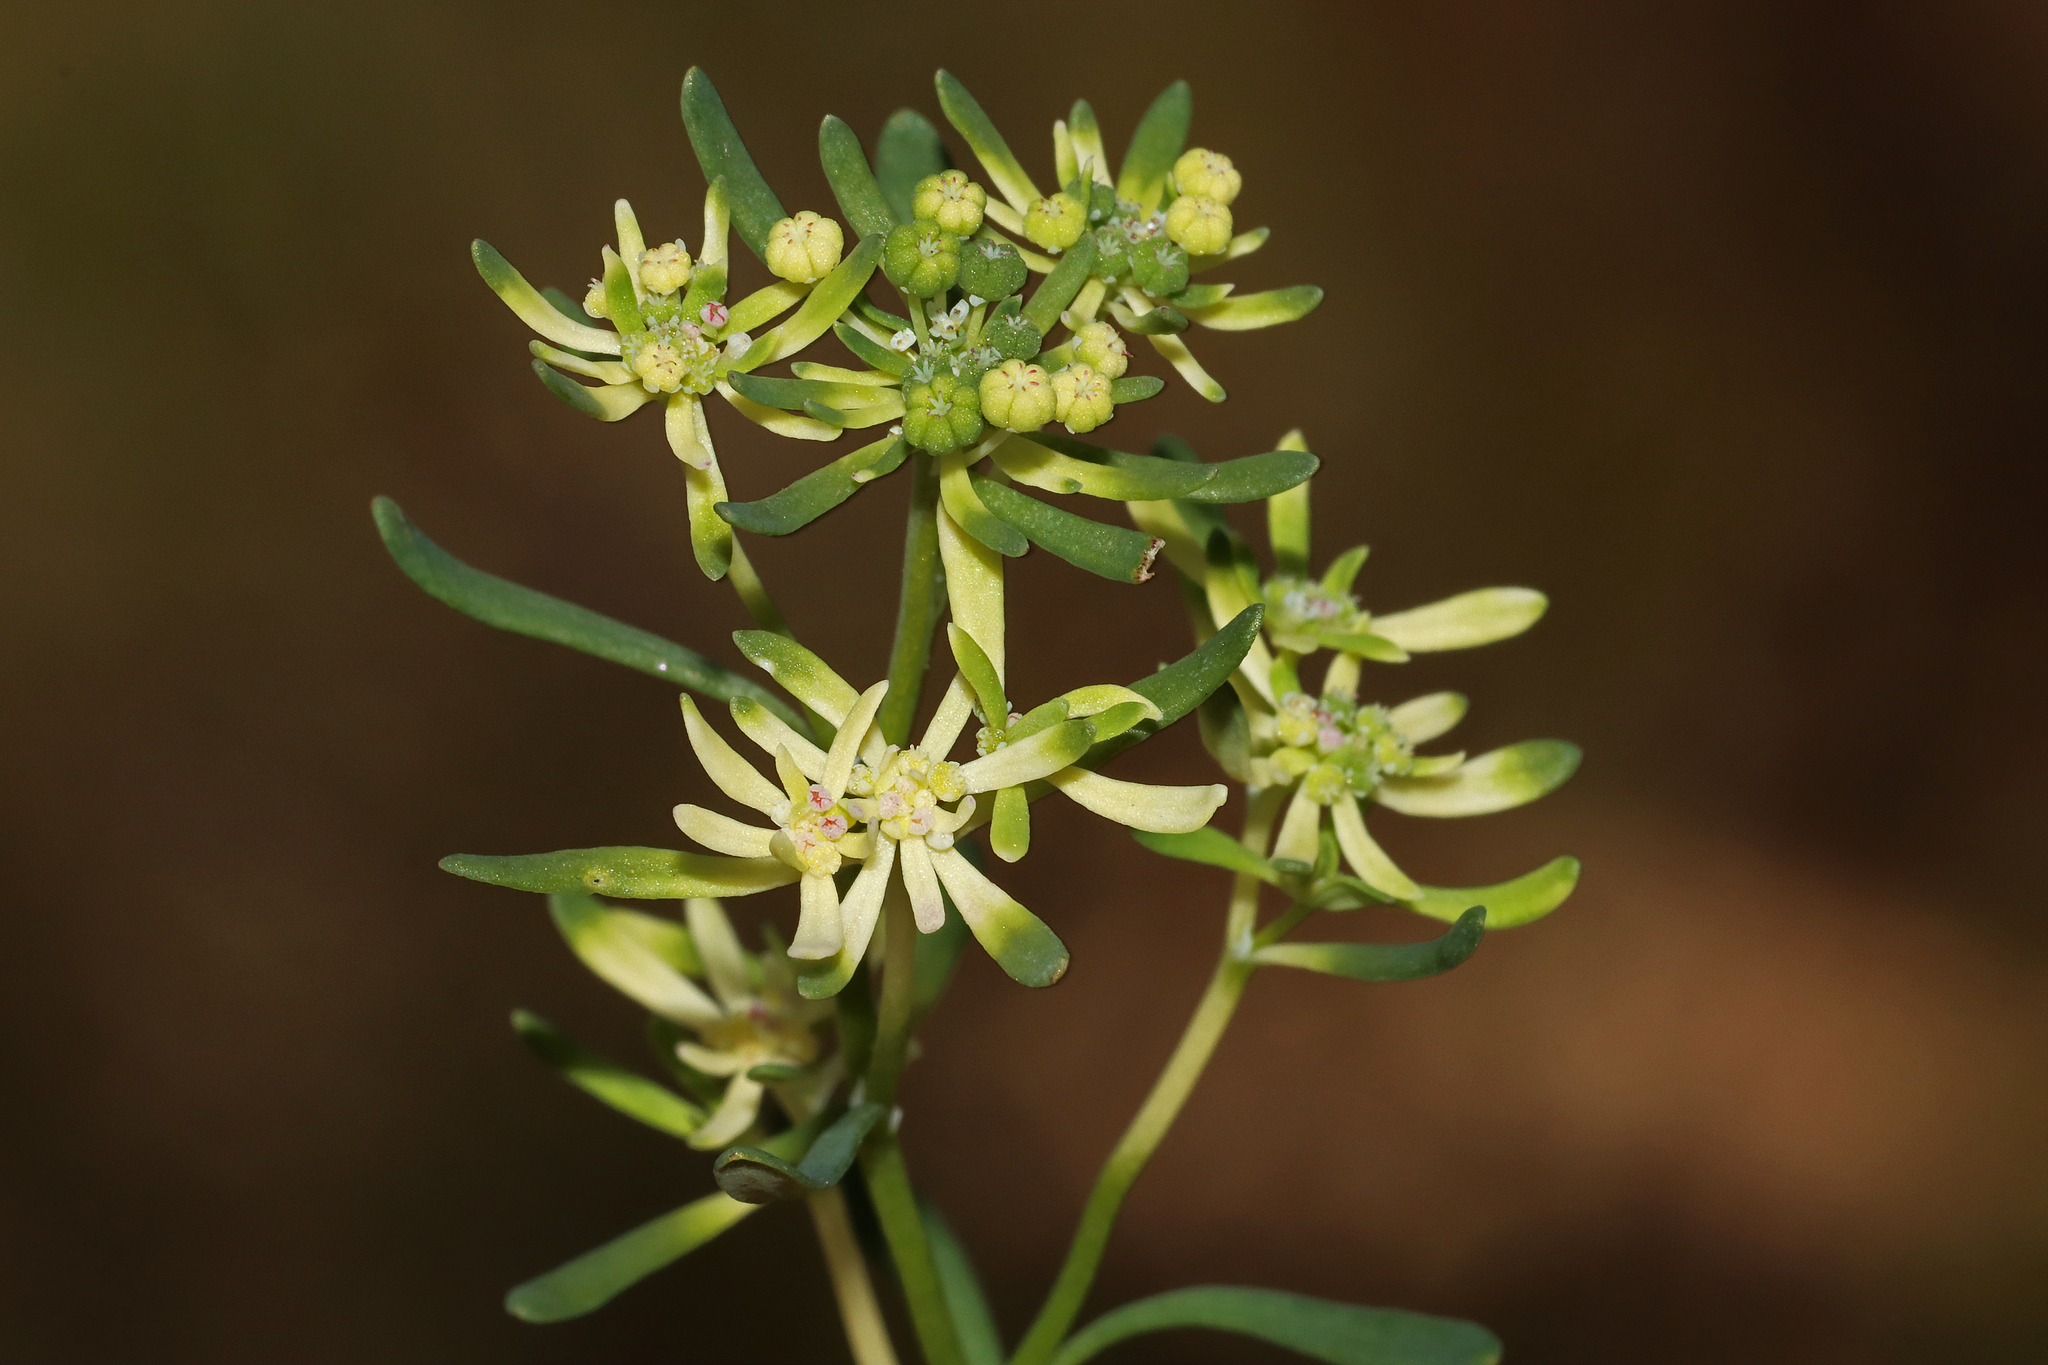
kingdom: Plantae
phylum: Tracheophyta
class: Magnoliopsida
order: Malpighiales
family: Phyllanthaceae
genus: Poranthera
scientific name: Poranthera huegelii
